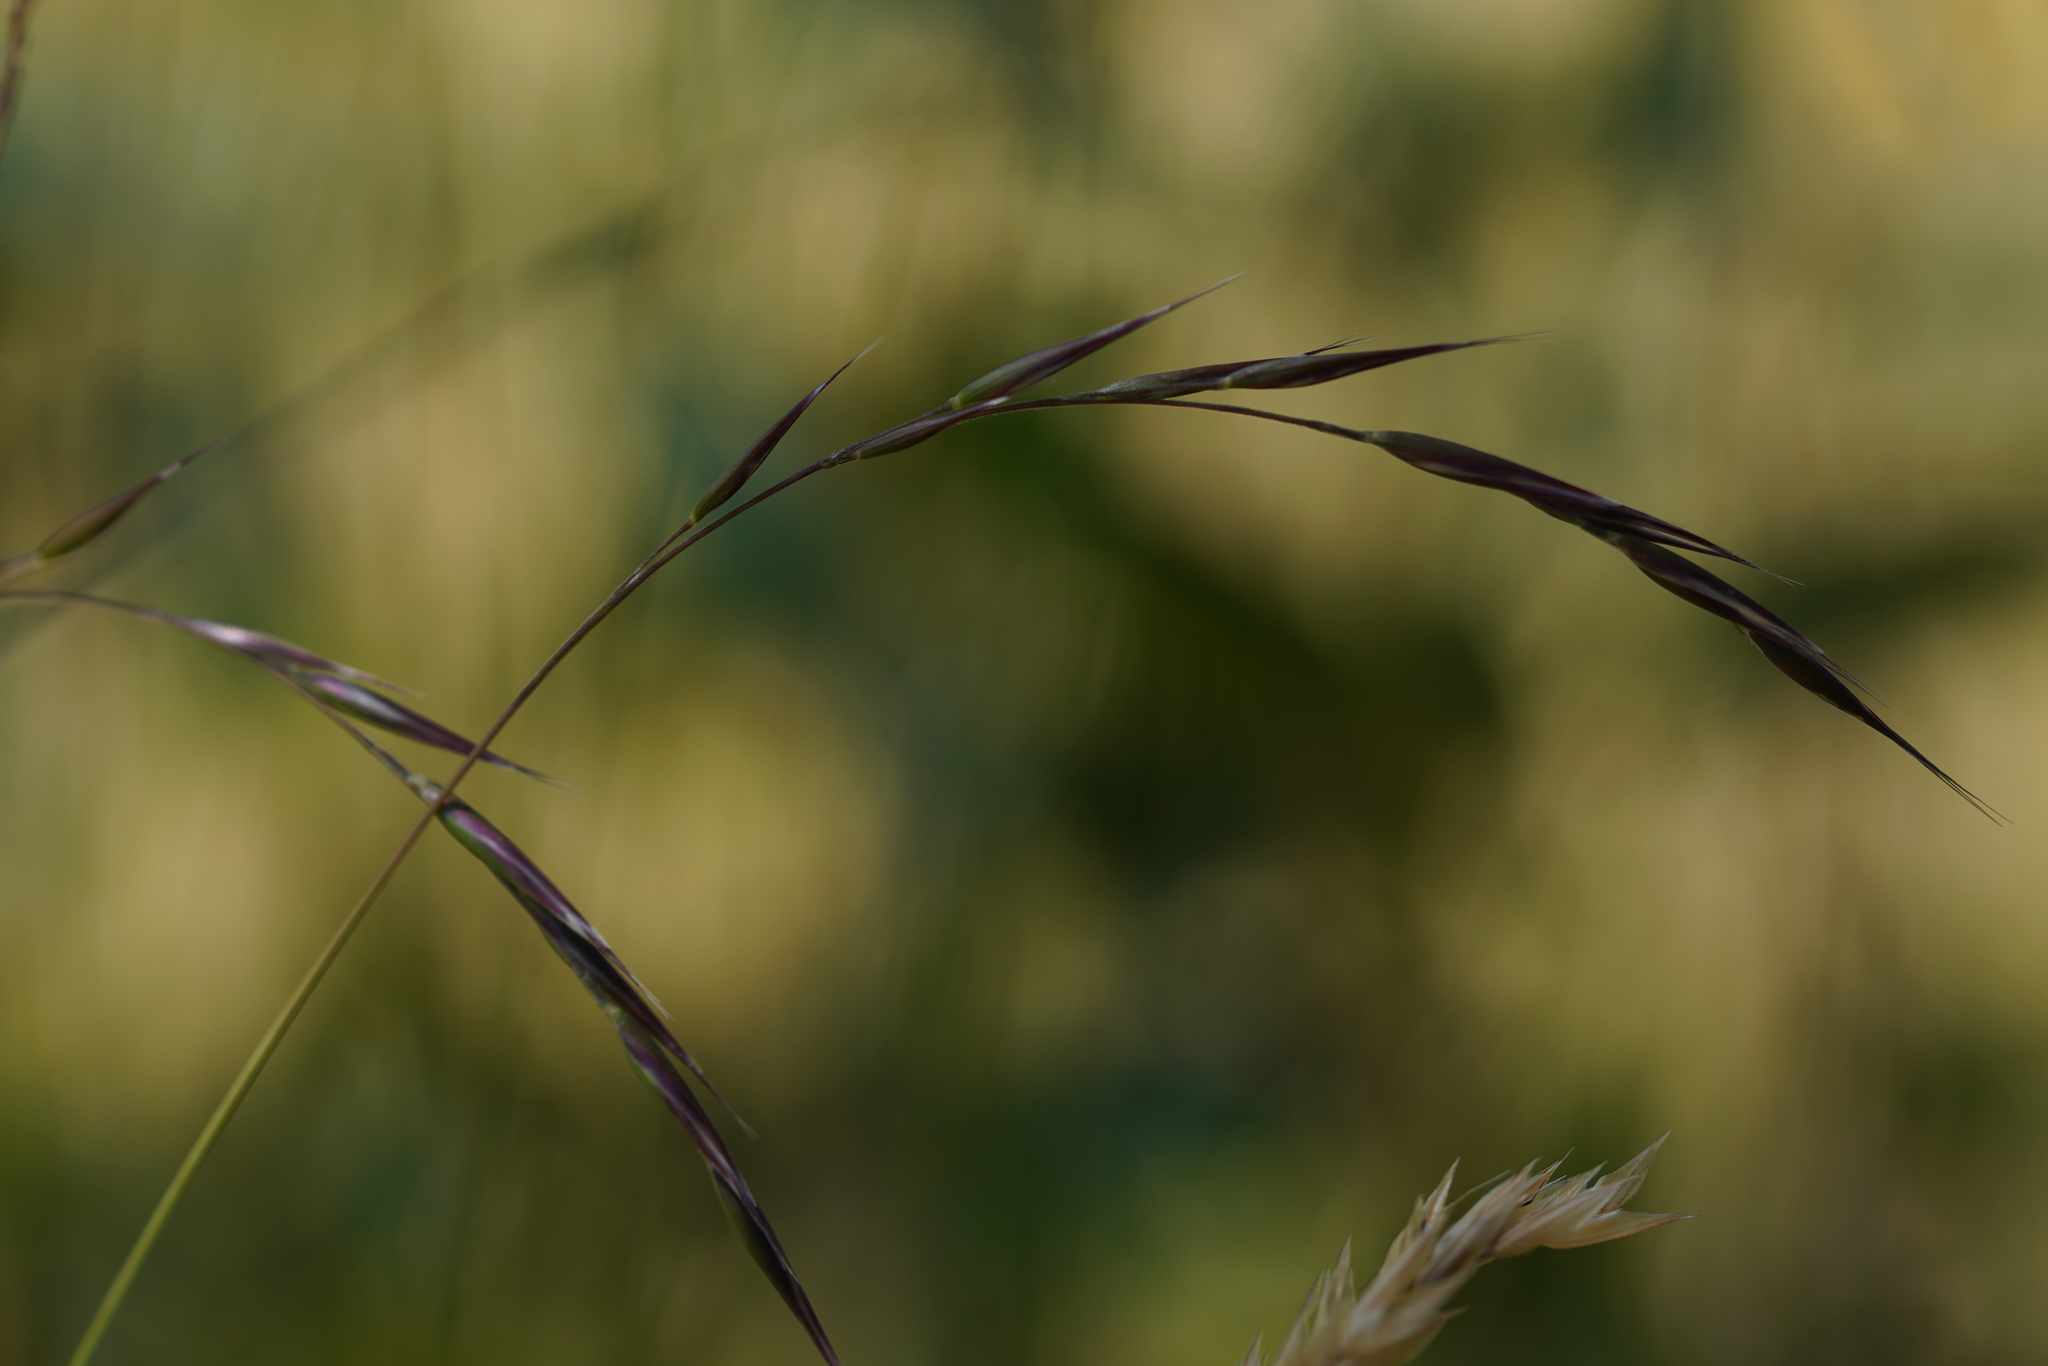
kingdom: Plantae
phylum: Tracheophyta
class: Liliopsida
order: Poales
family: Poaceae
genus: Rytidosperma
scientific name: Rytidosperma penicillatum
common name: Hairy wallaby grass
